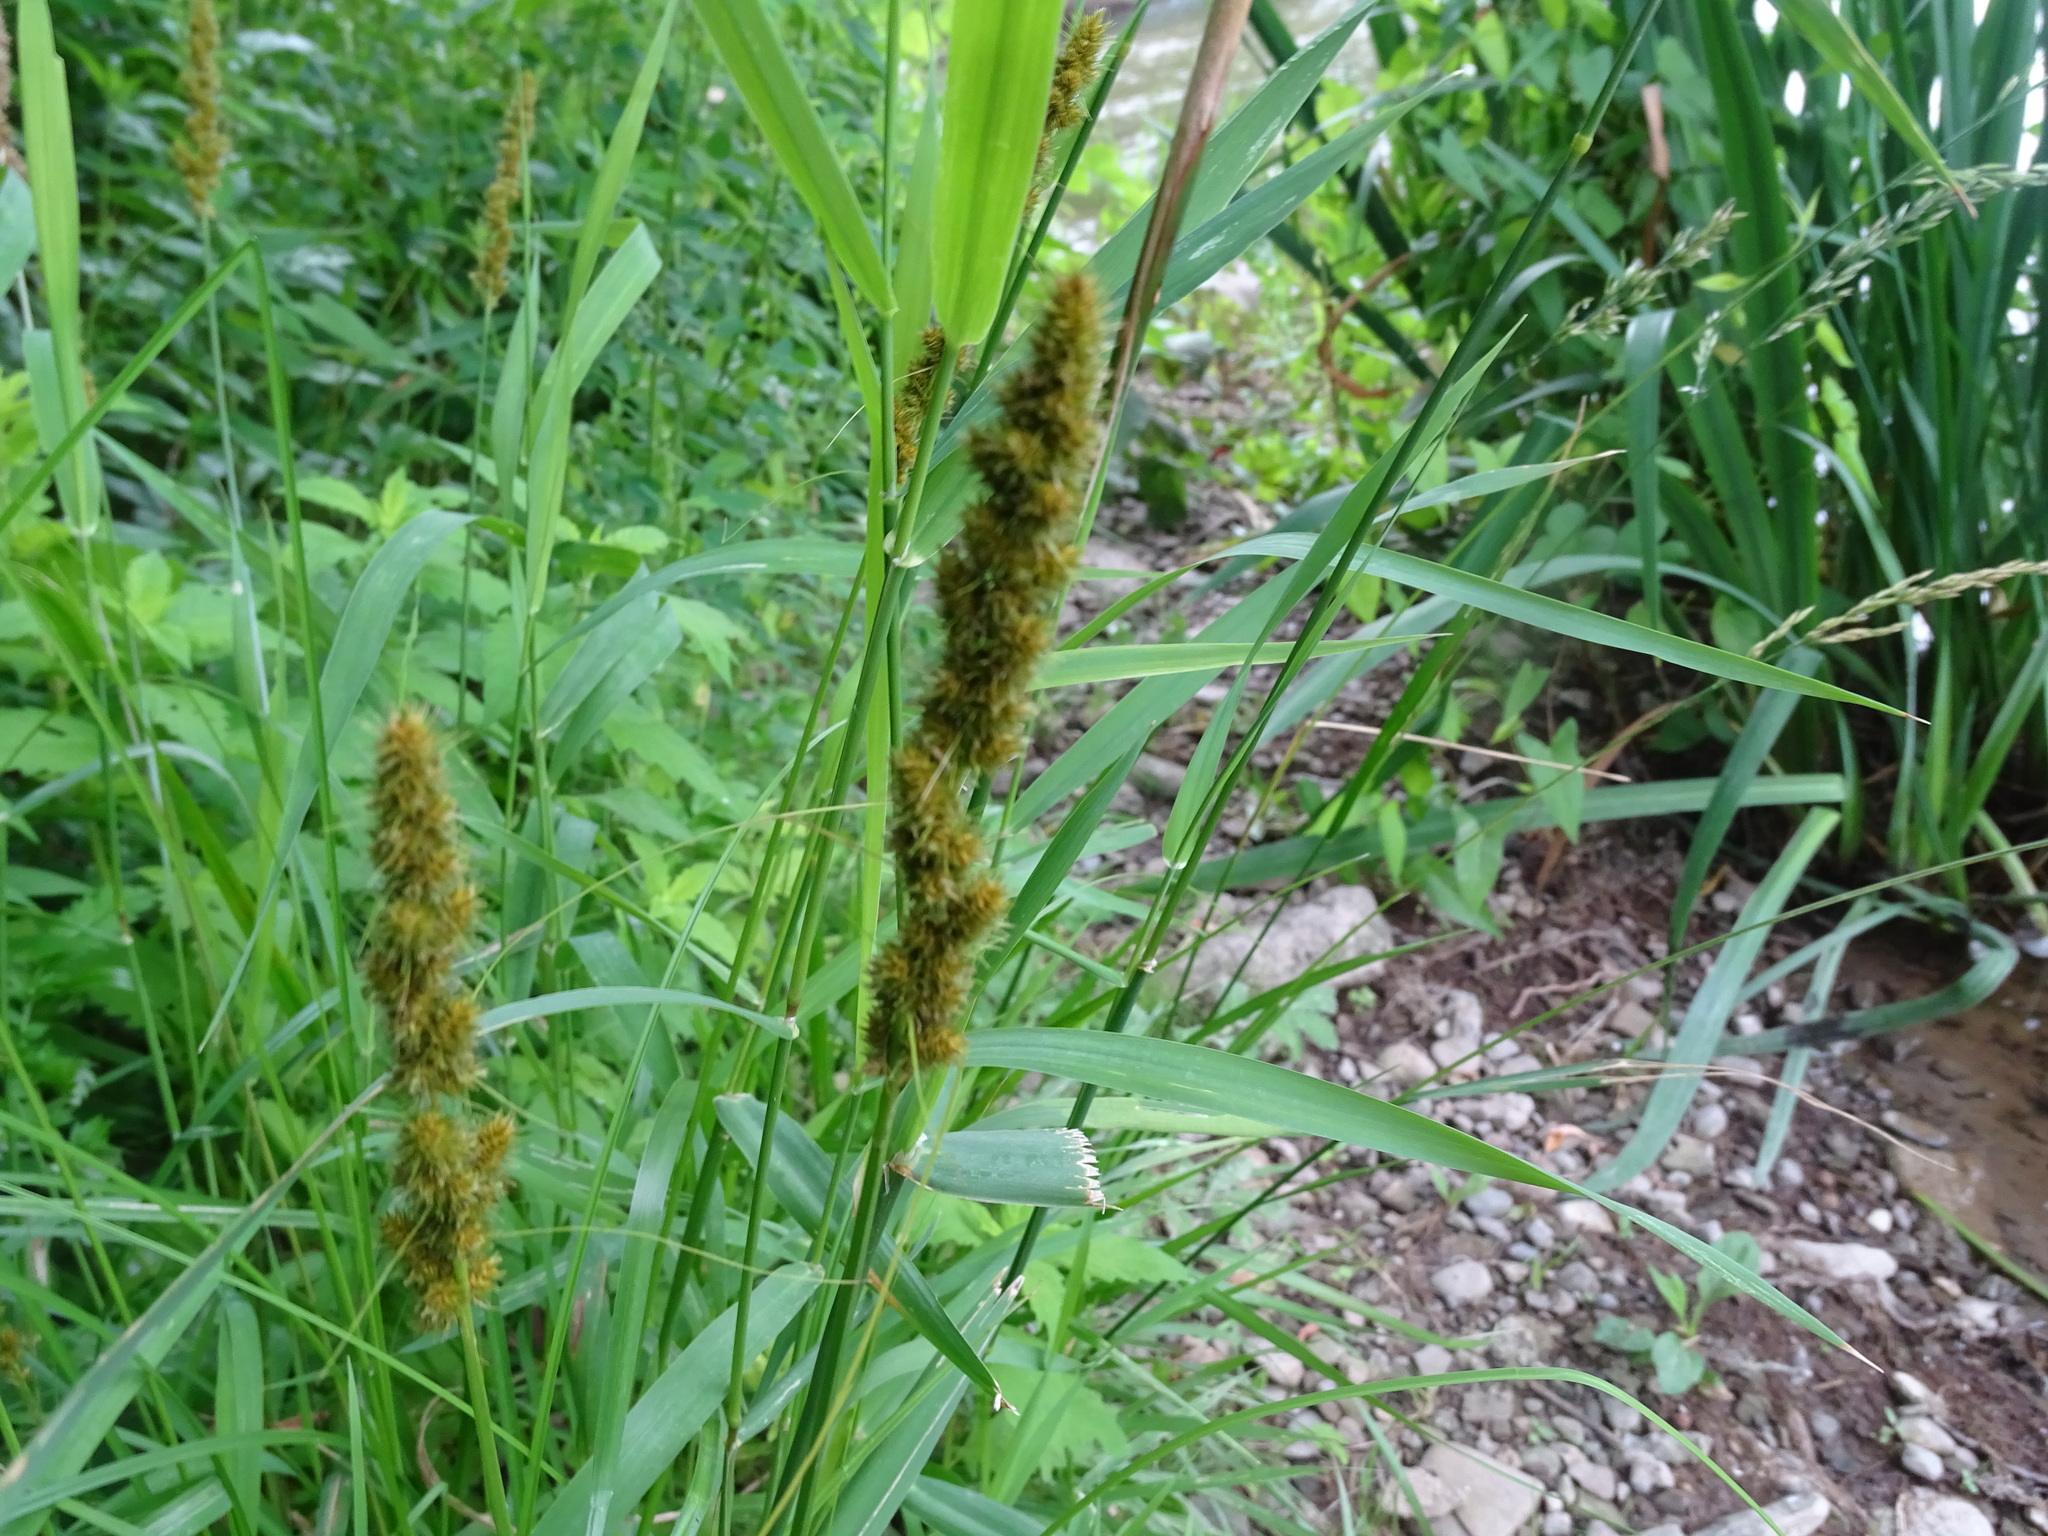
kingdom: Plantae
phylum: Tracheophyta
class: Liliopsida
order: Poales
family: Cyperaceae
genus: Carex
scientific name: Carex vulpinoidea
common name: American fox-sedge
